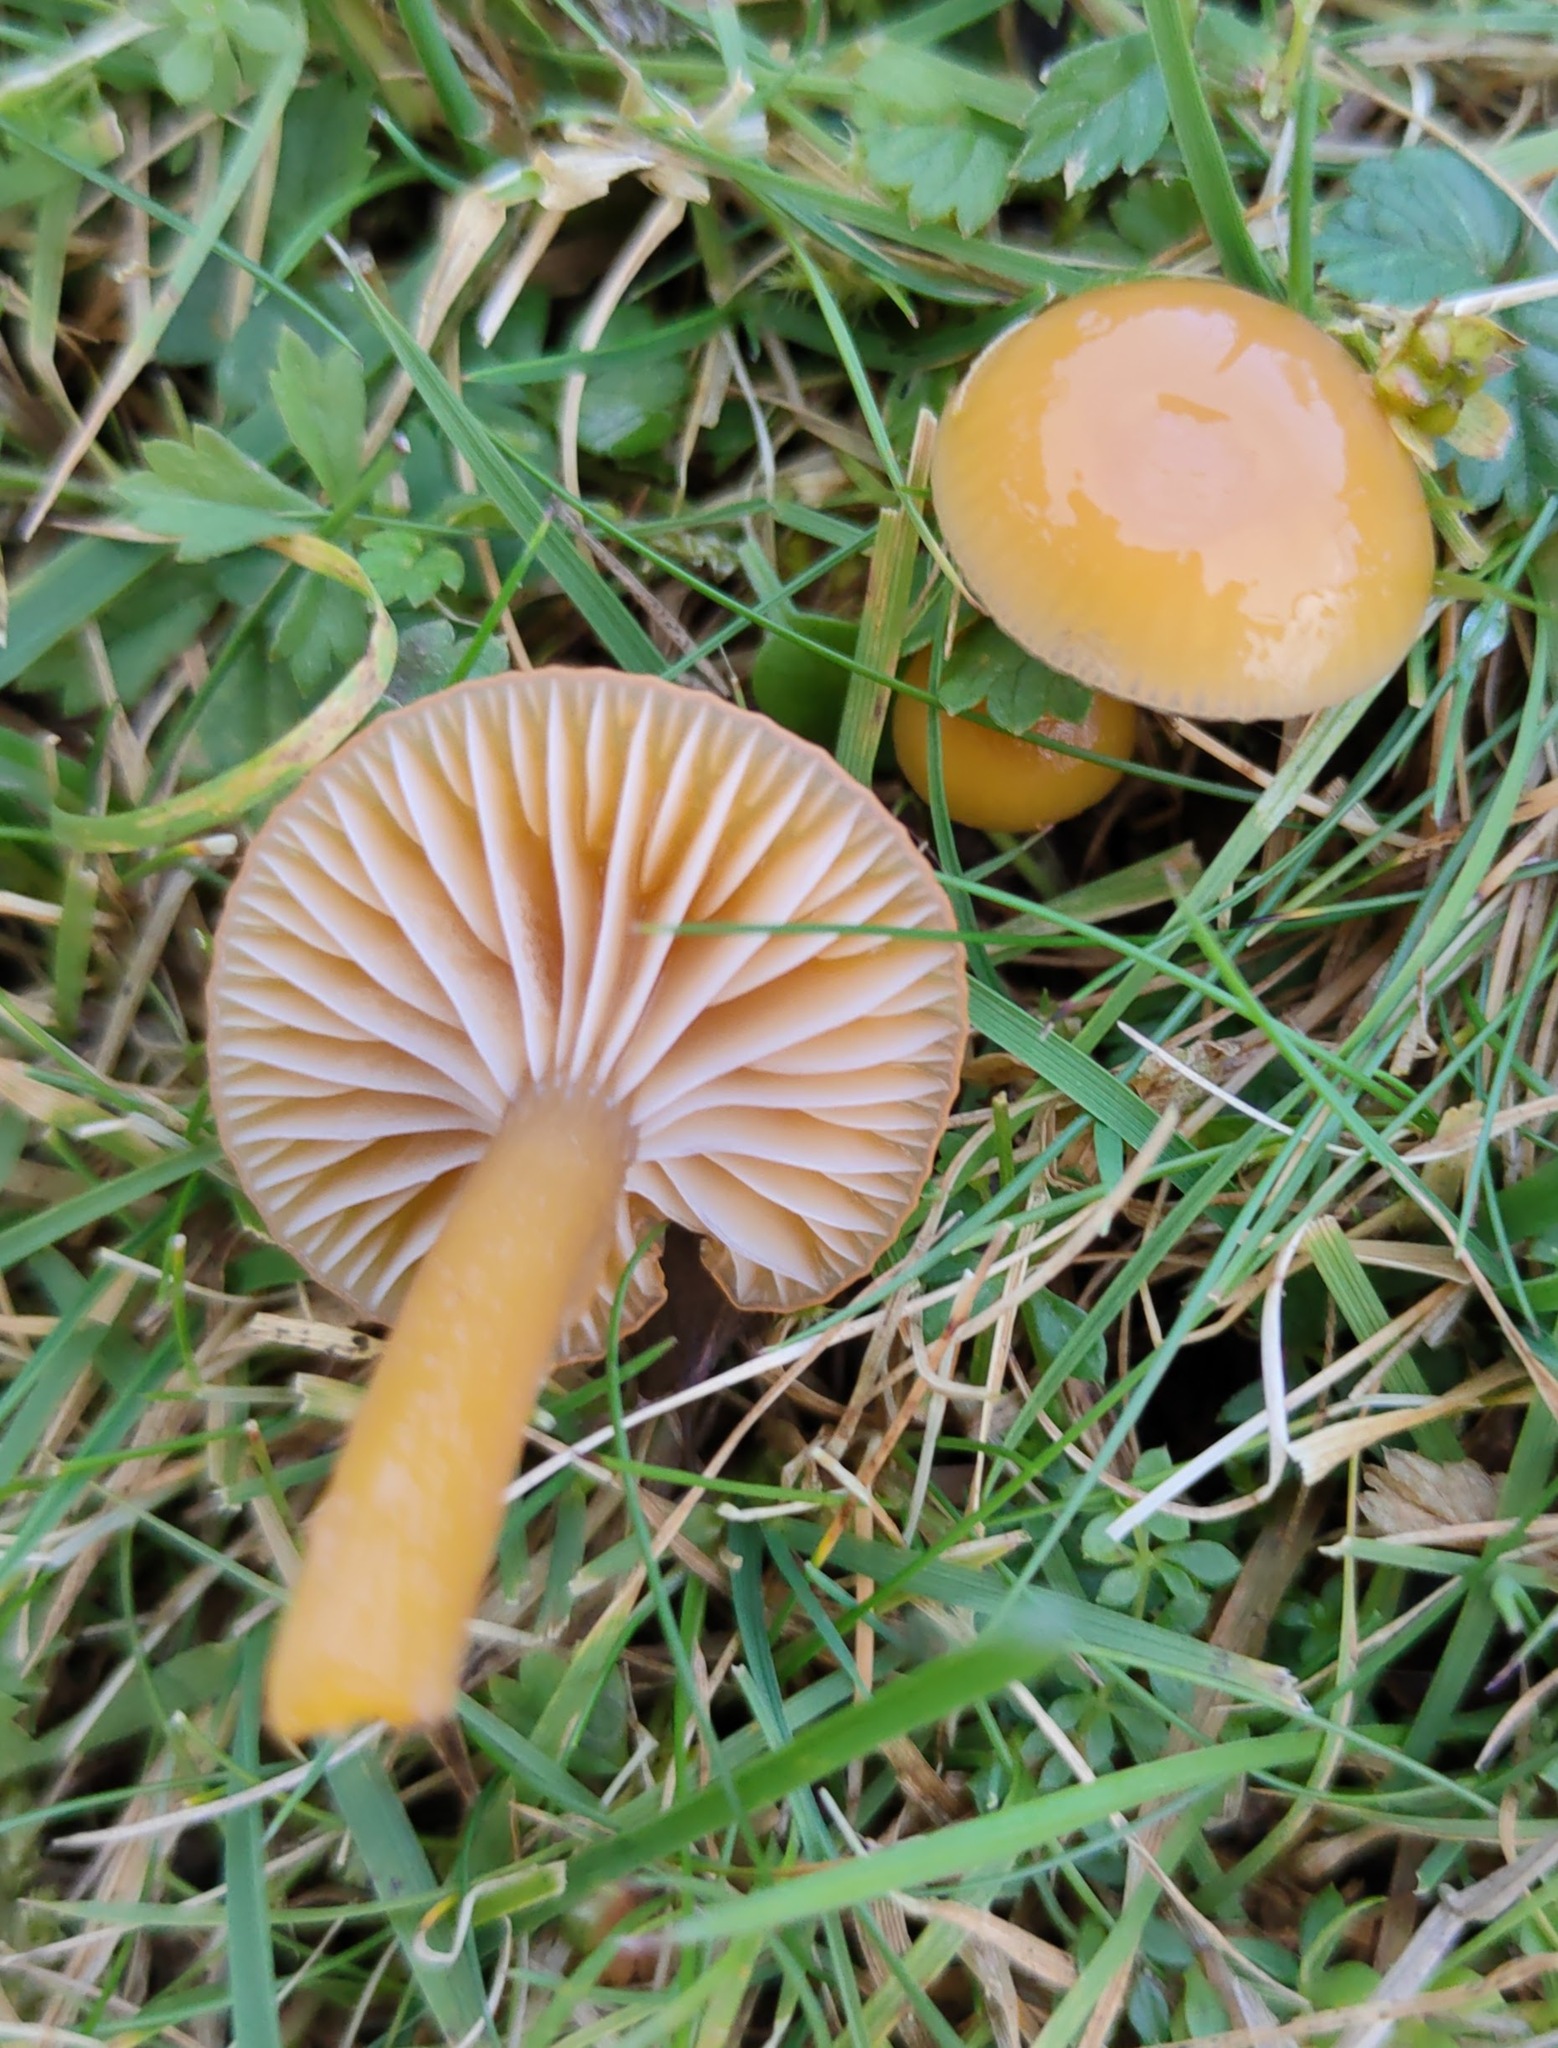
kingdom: Fungi
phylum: Basidiomycota
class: Agaricomycetes
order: Agaricales
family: Hygrophoraceae
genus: Gliophorus
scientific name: Gliophorus laetus
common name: Heath waxcap
